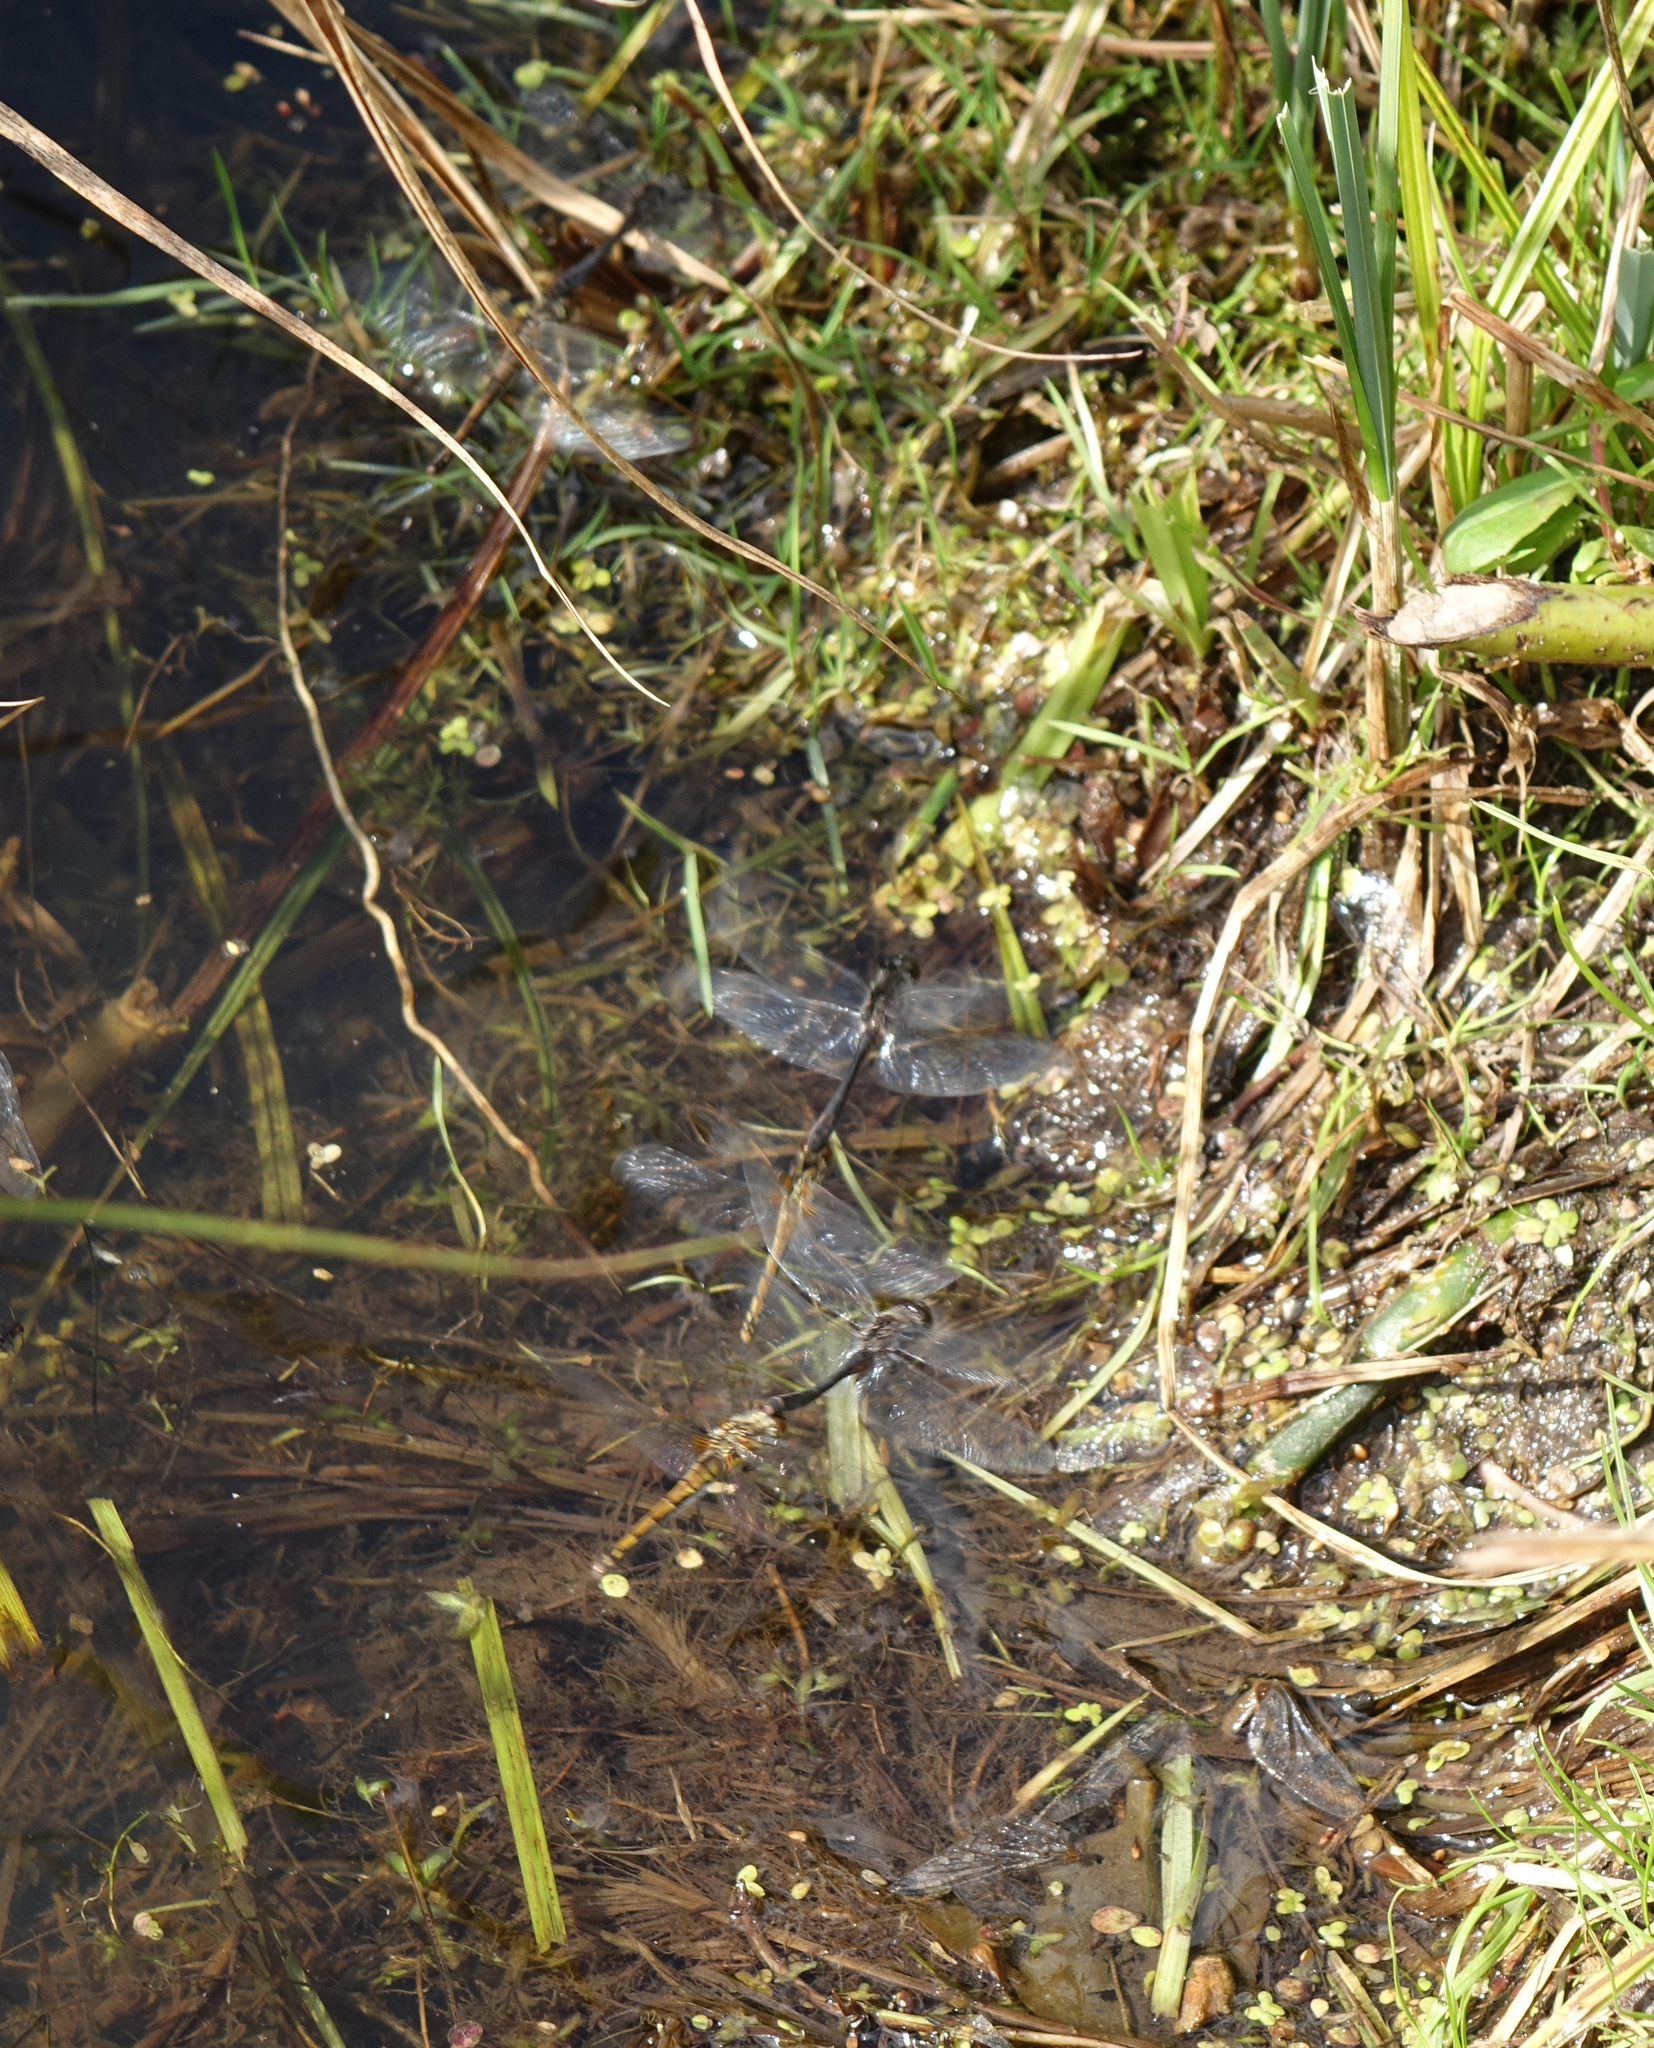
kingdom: Animalia
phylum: Arthropoda
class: Insecta
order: Odonata
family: Libellulidae
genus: Sympetrum
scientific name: Sympetrum danae
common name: Black darter
